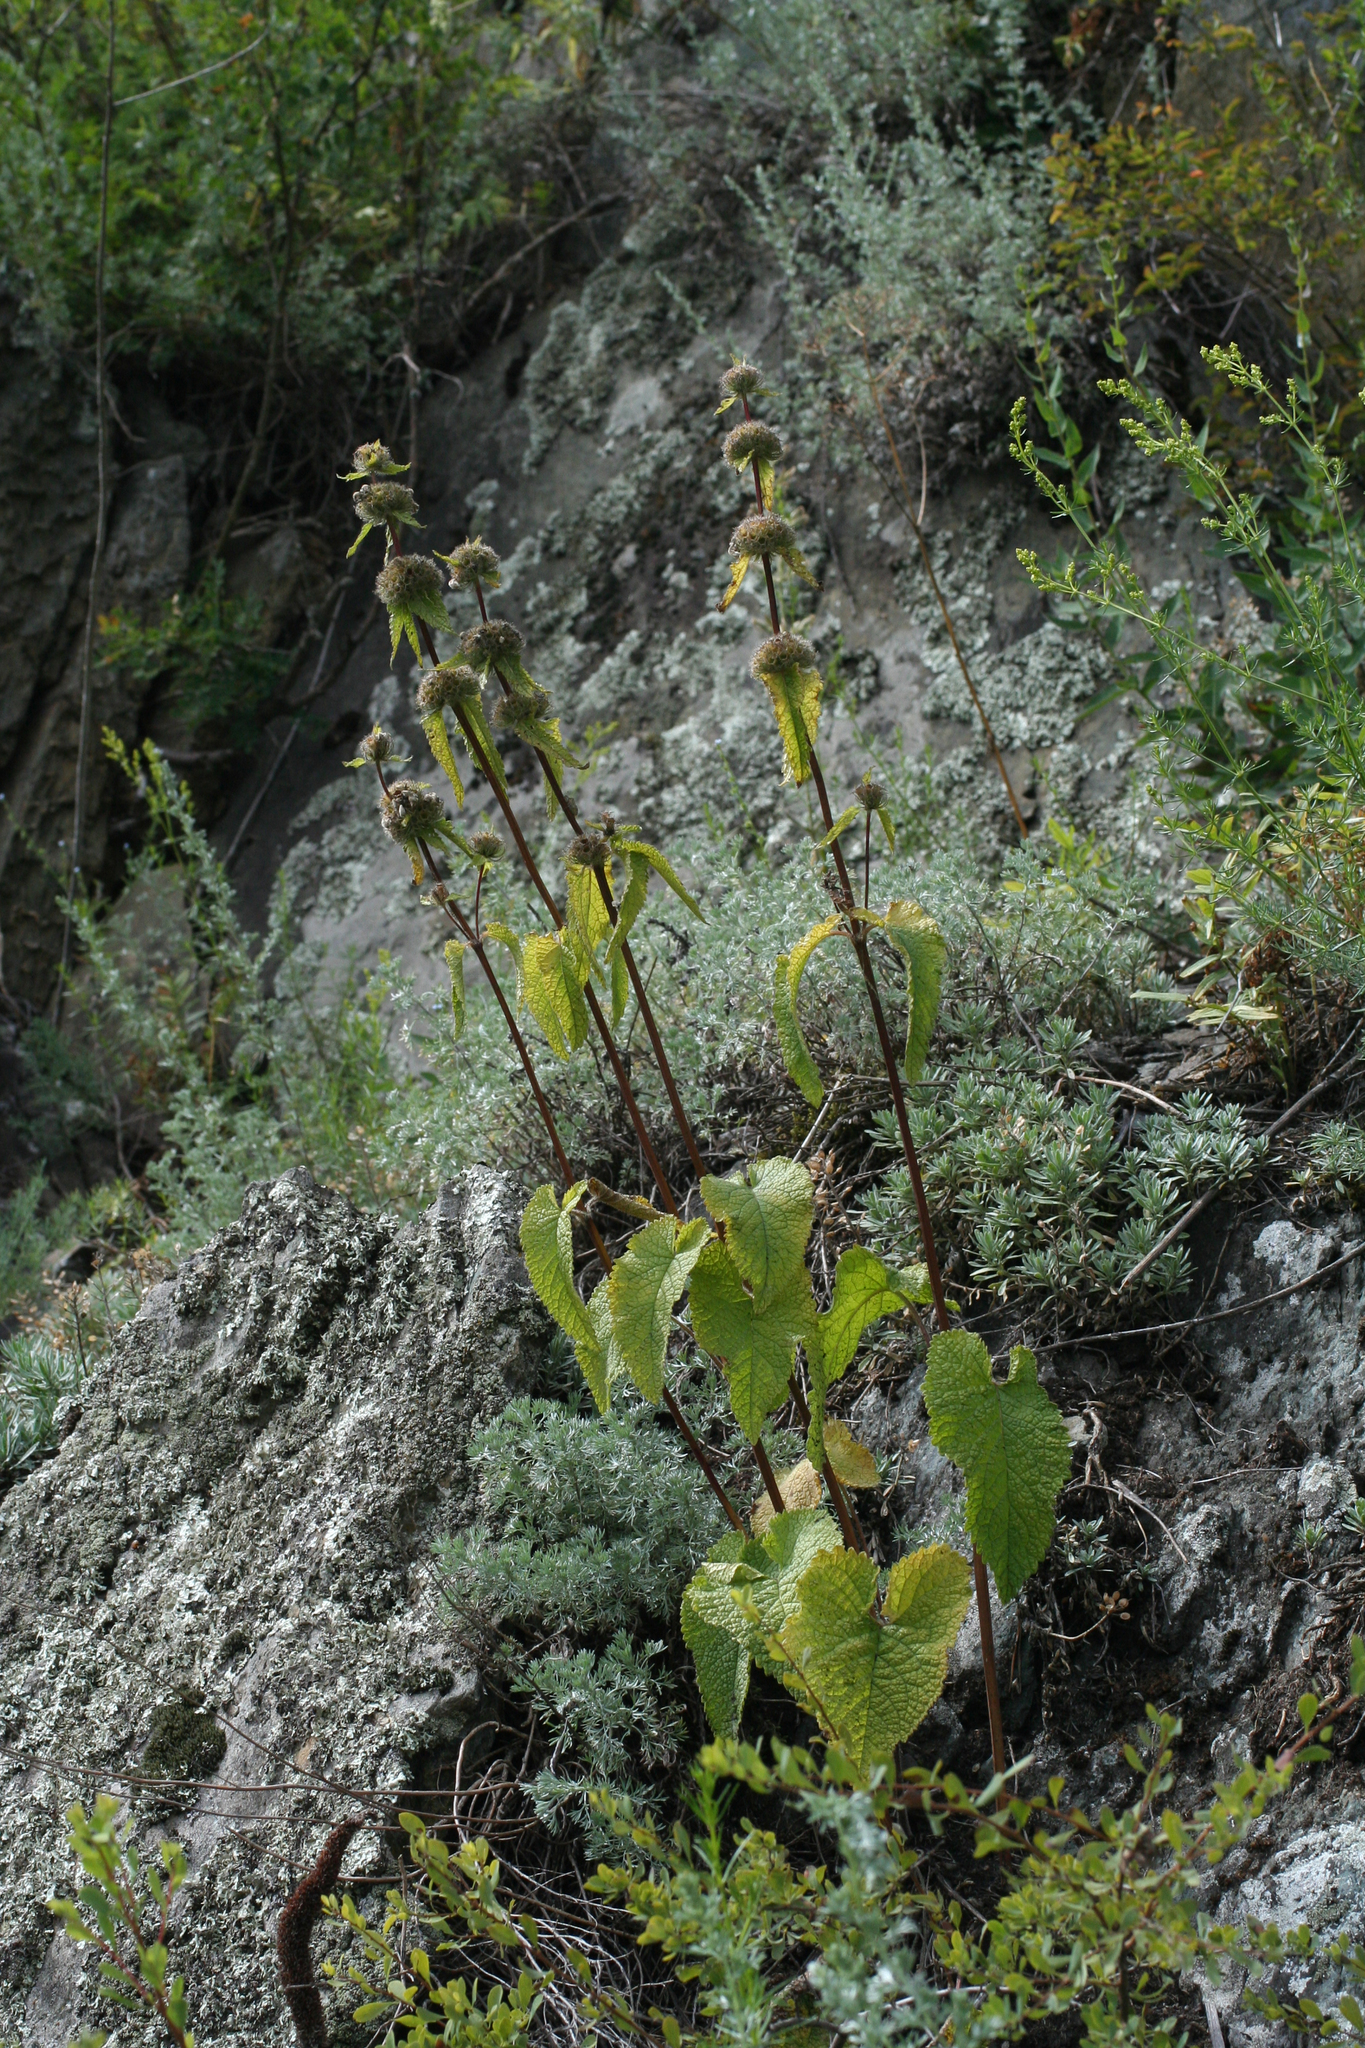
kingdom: Plantae
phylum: Tracheophyta
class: Magnoliopsida
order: Lamiales
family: Lamiaceae
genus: Phlomoides
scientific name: Phlomoides tuberosa
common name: Tuberous jerusalem sage
